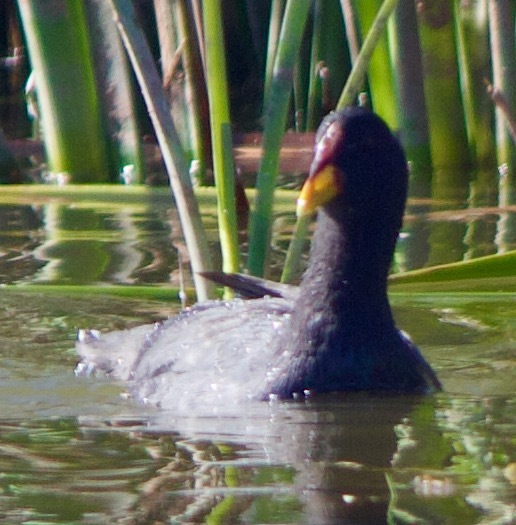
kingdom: Animalia
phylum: Chordata
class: Aves
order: Gruiformes
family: Rallidae
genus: Fulica
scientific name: Fulica rufifrons
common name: Red-fronted coot
